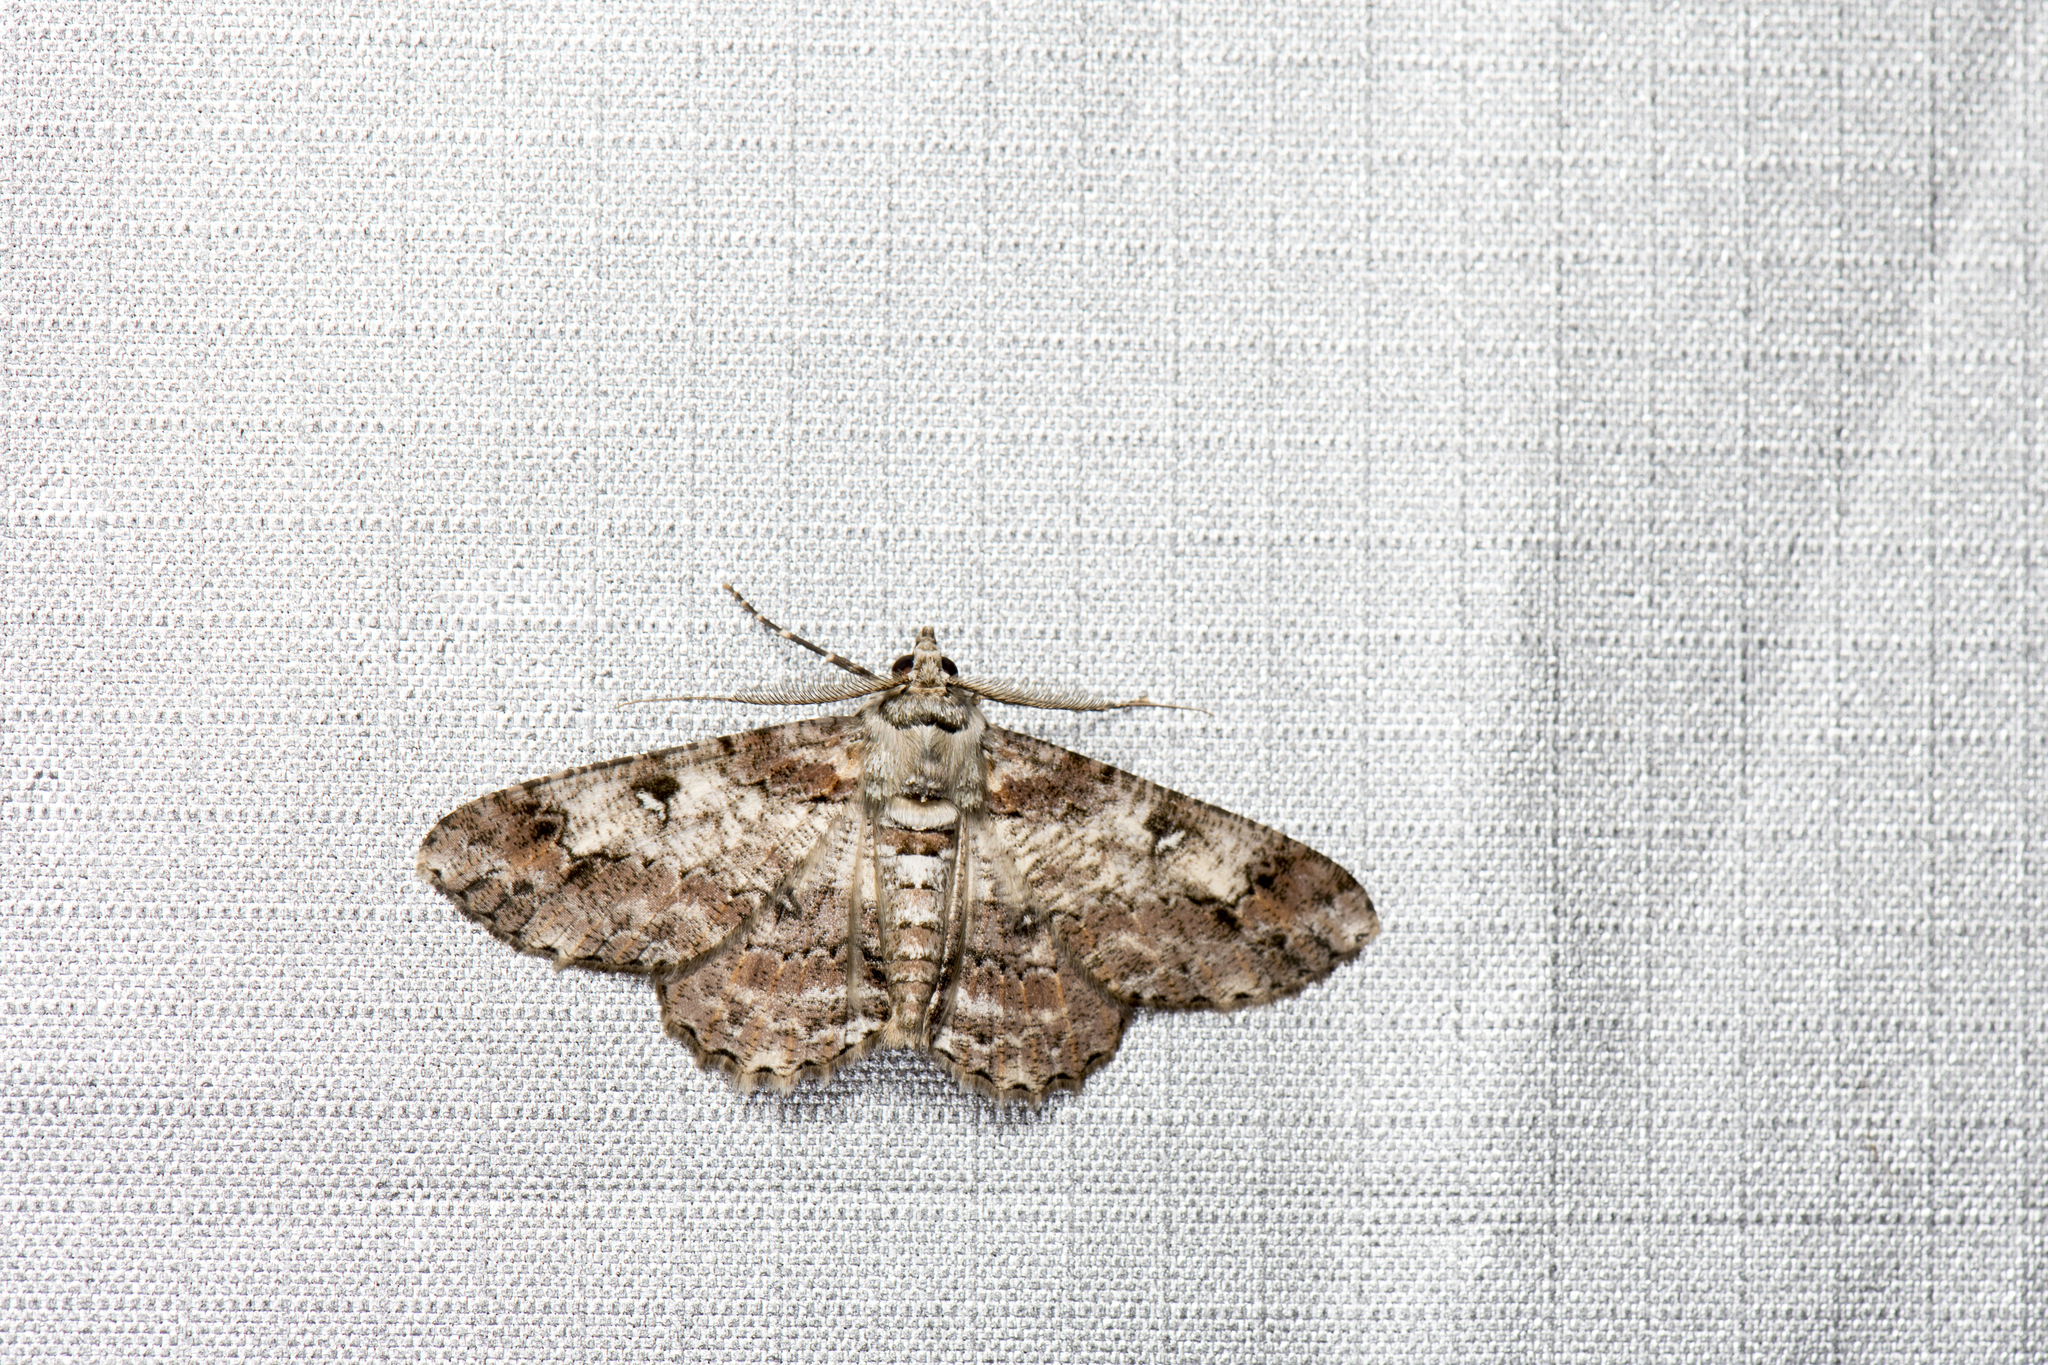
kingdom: Animalia
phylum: Arthropoda
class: Insecta
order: Lepidoptera
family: Geometridae
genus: Cleora
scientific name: Cleora fraterna
